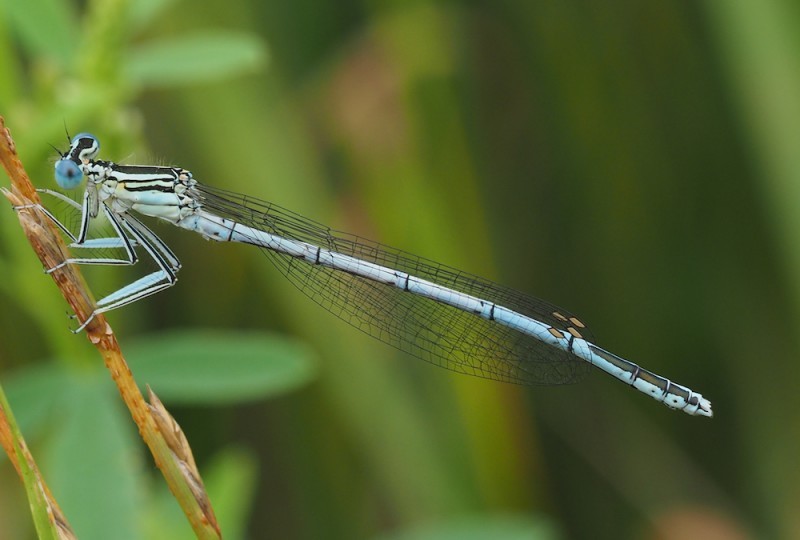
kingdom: Animalia
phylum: Arthropoda
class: Insecta
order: Odonata
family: Platycnemididae
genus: Platycnemis
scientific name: Platycnemis pennipes
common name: White-legged damselfly
